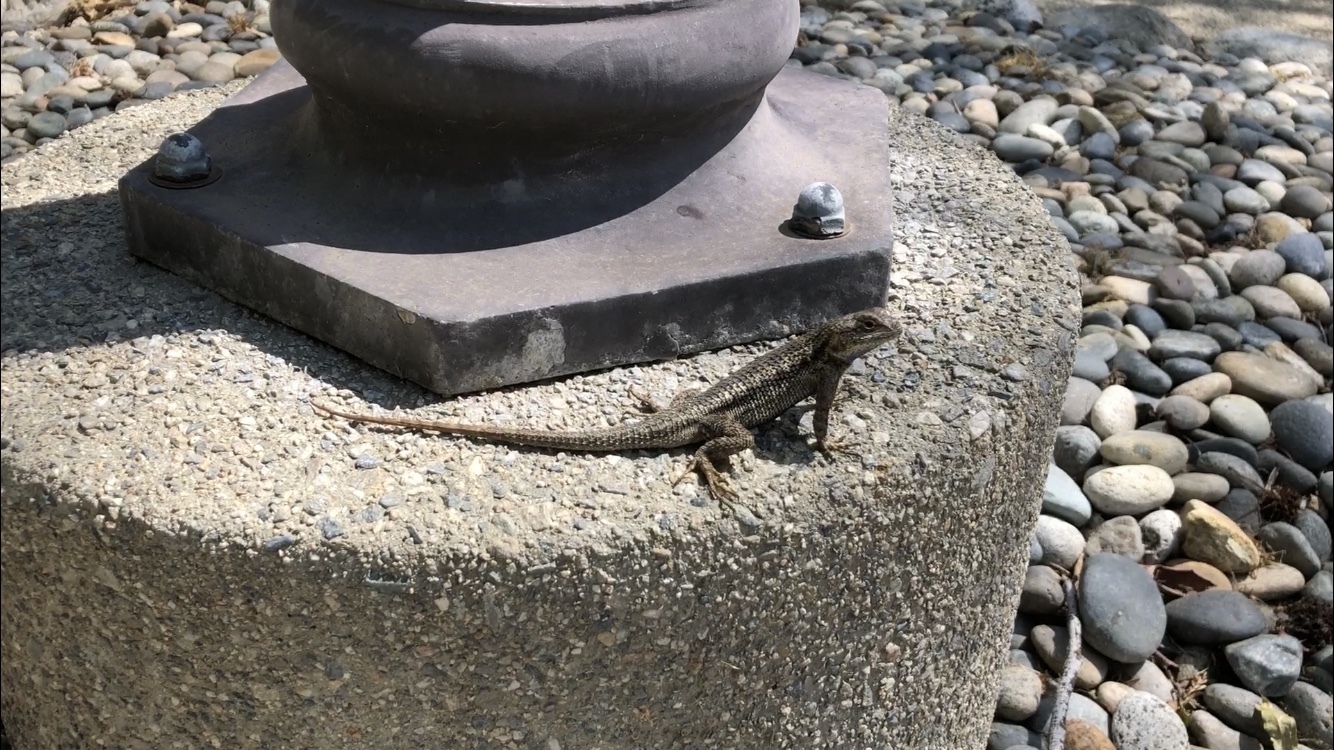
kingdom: Animalia
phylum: Chordata
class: Squamata
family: Phrynosomatidae
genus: Sceloporus
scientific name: Sceloporus occidentalis
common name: Western fence lizard
